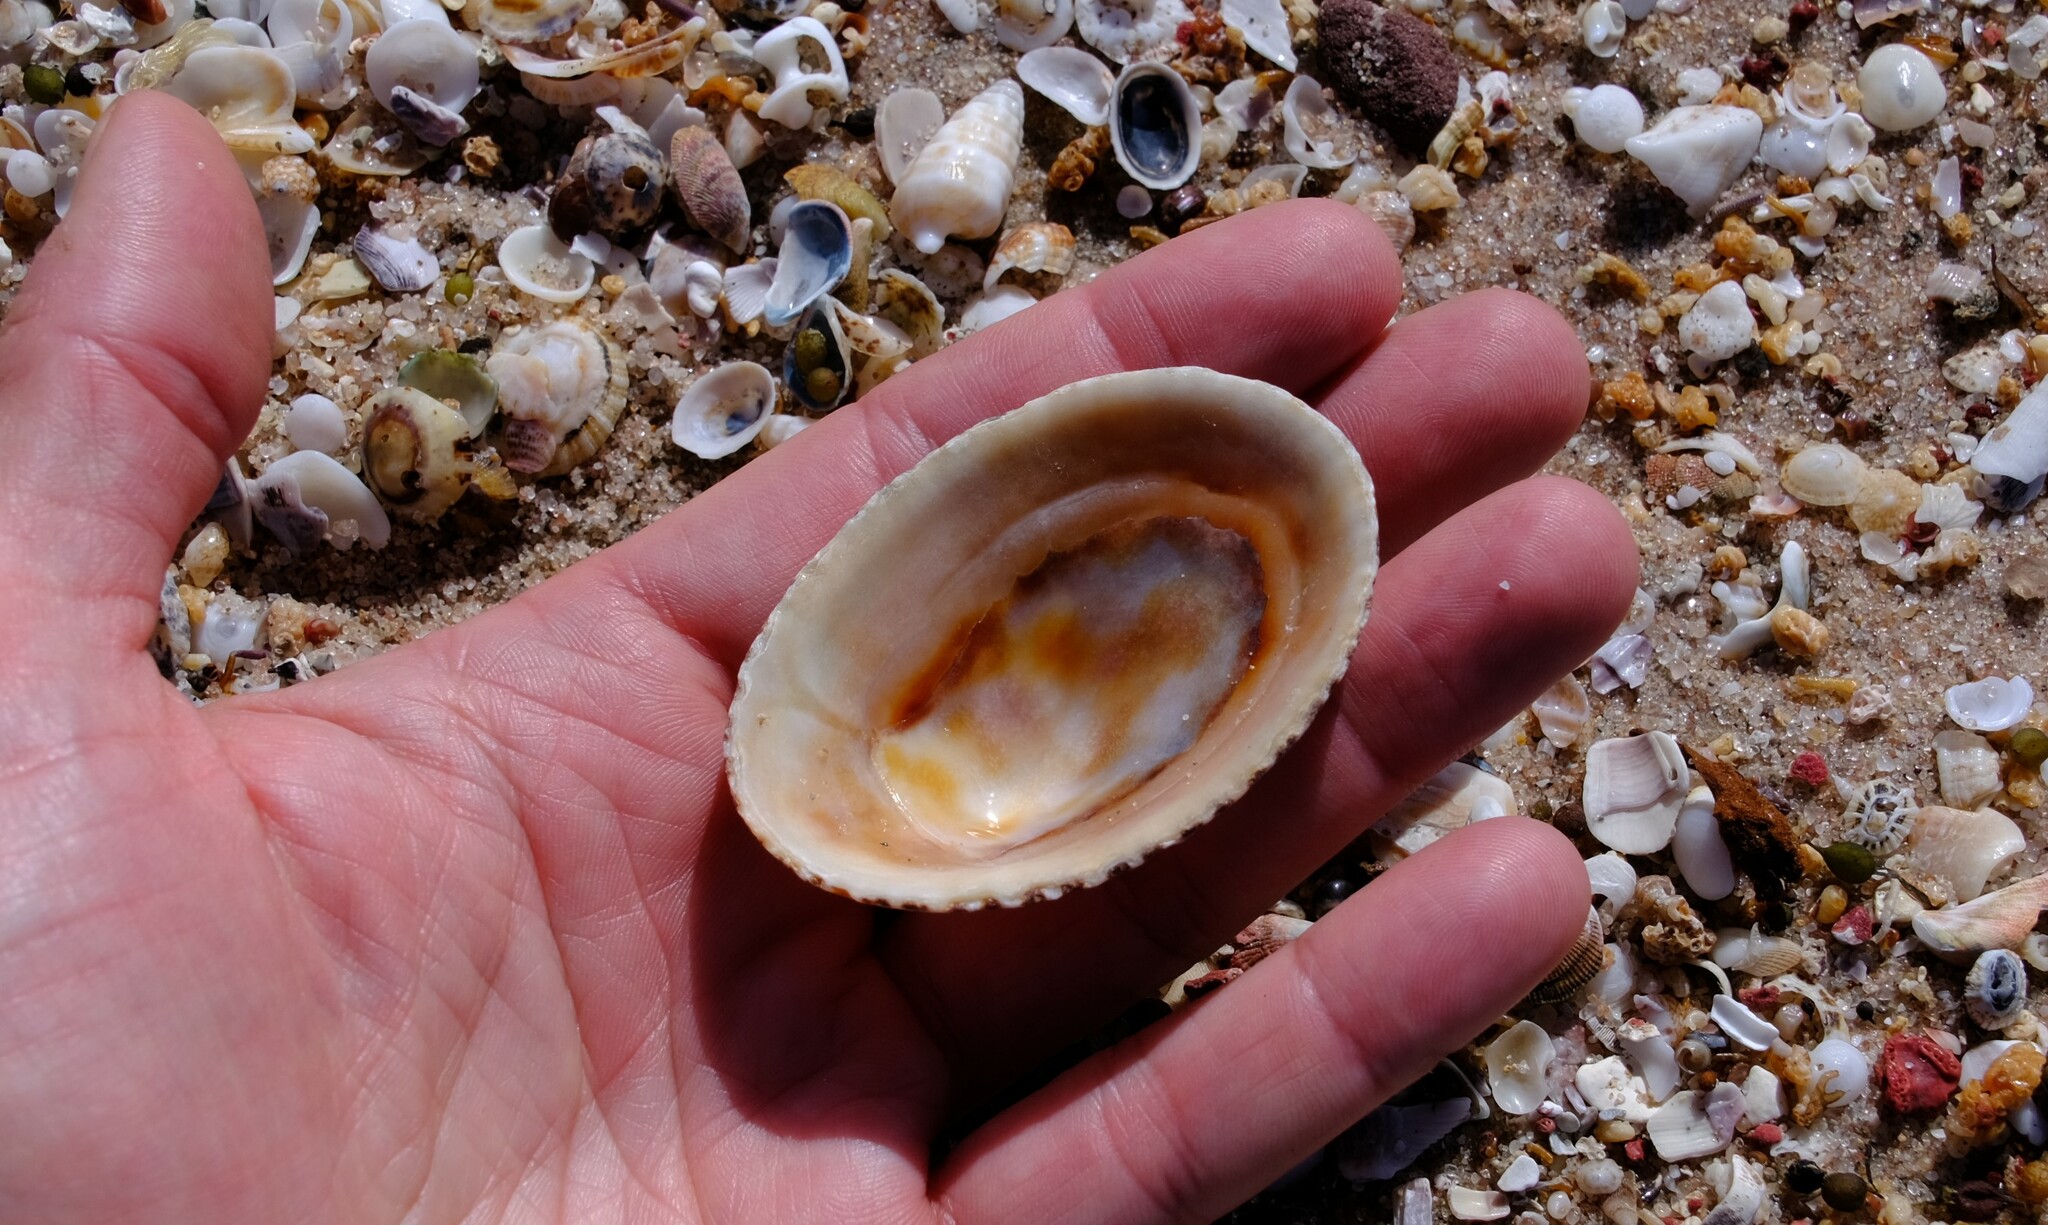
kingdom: Animalia
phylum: Mollusca
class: Gastropoda
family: Patellidae
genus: Scutellastra
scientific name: Scutellastra laticostata
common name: Giant limpet
